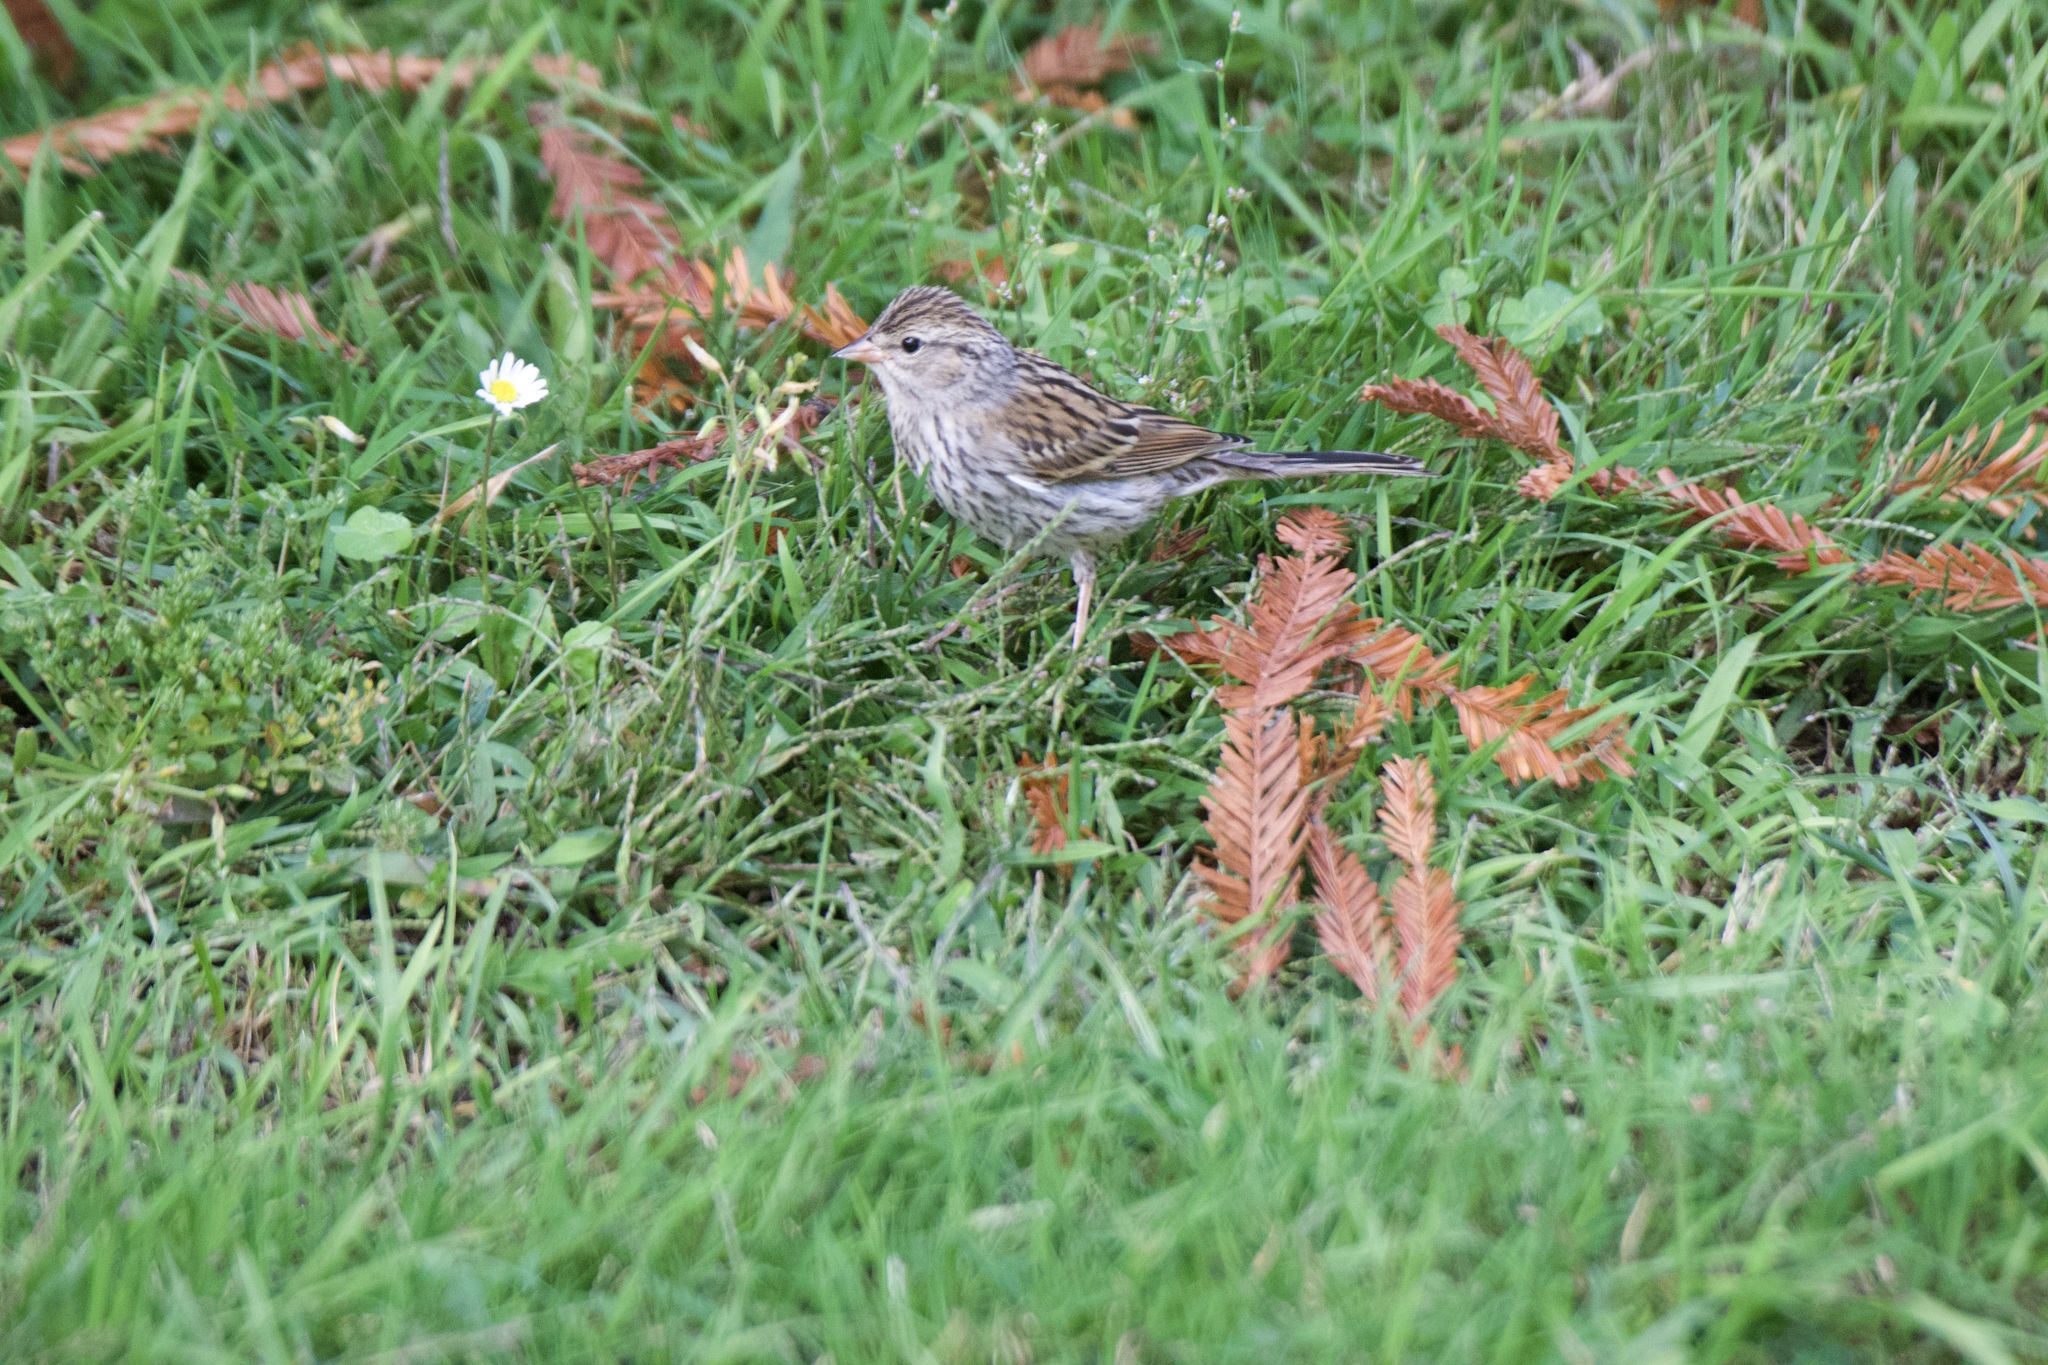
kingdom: Animalia
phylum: Chordata
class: Aves
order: Passeriformes
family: Passerellidae
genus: Spizella
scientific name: Spizella passerina
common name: Chipping sparrow
